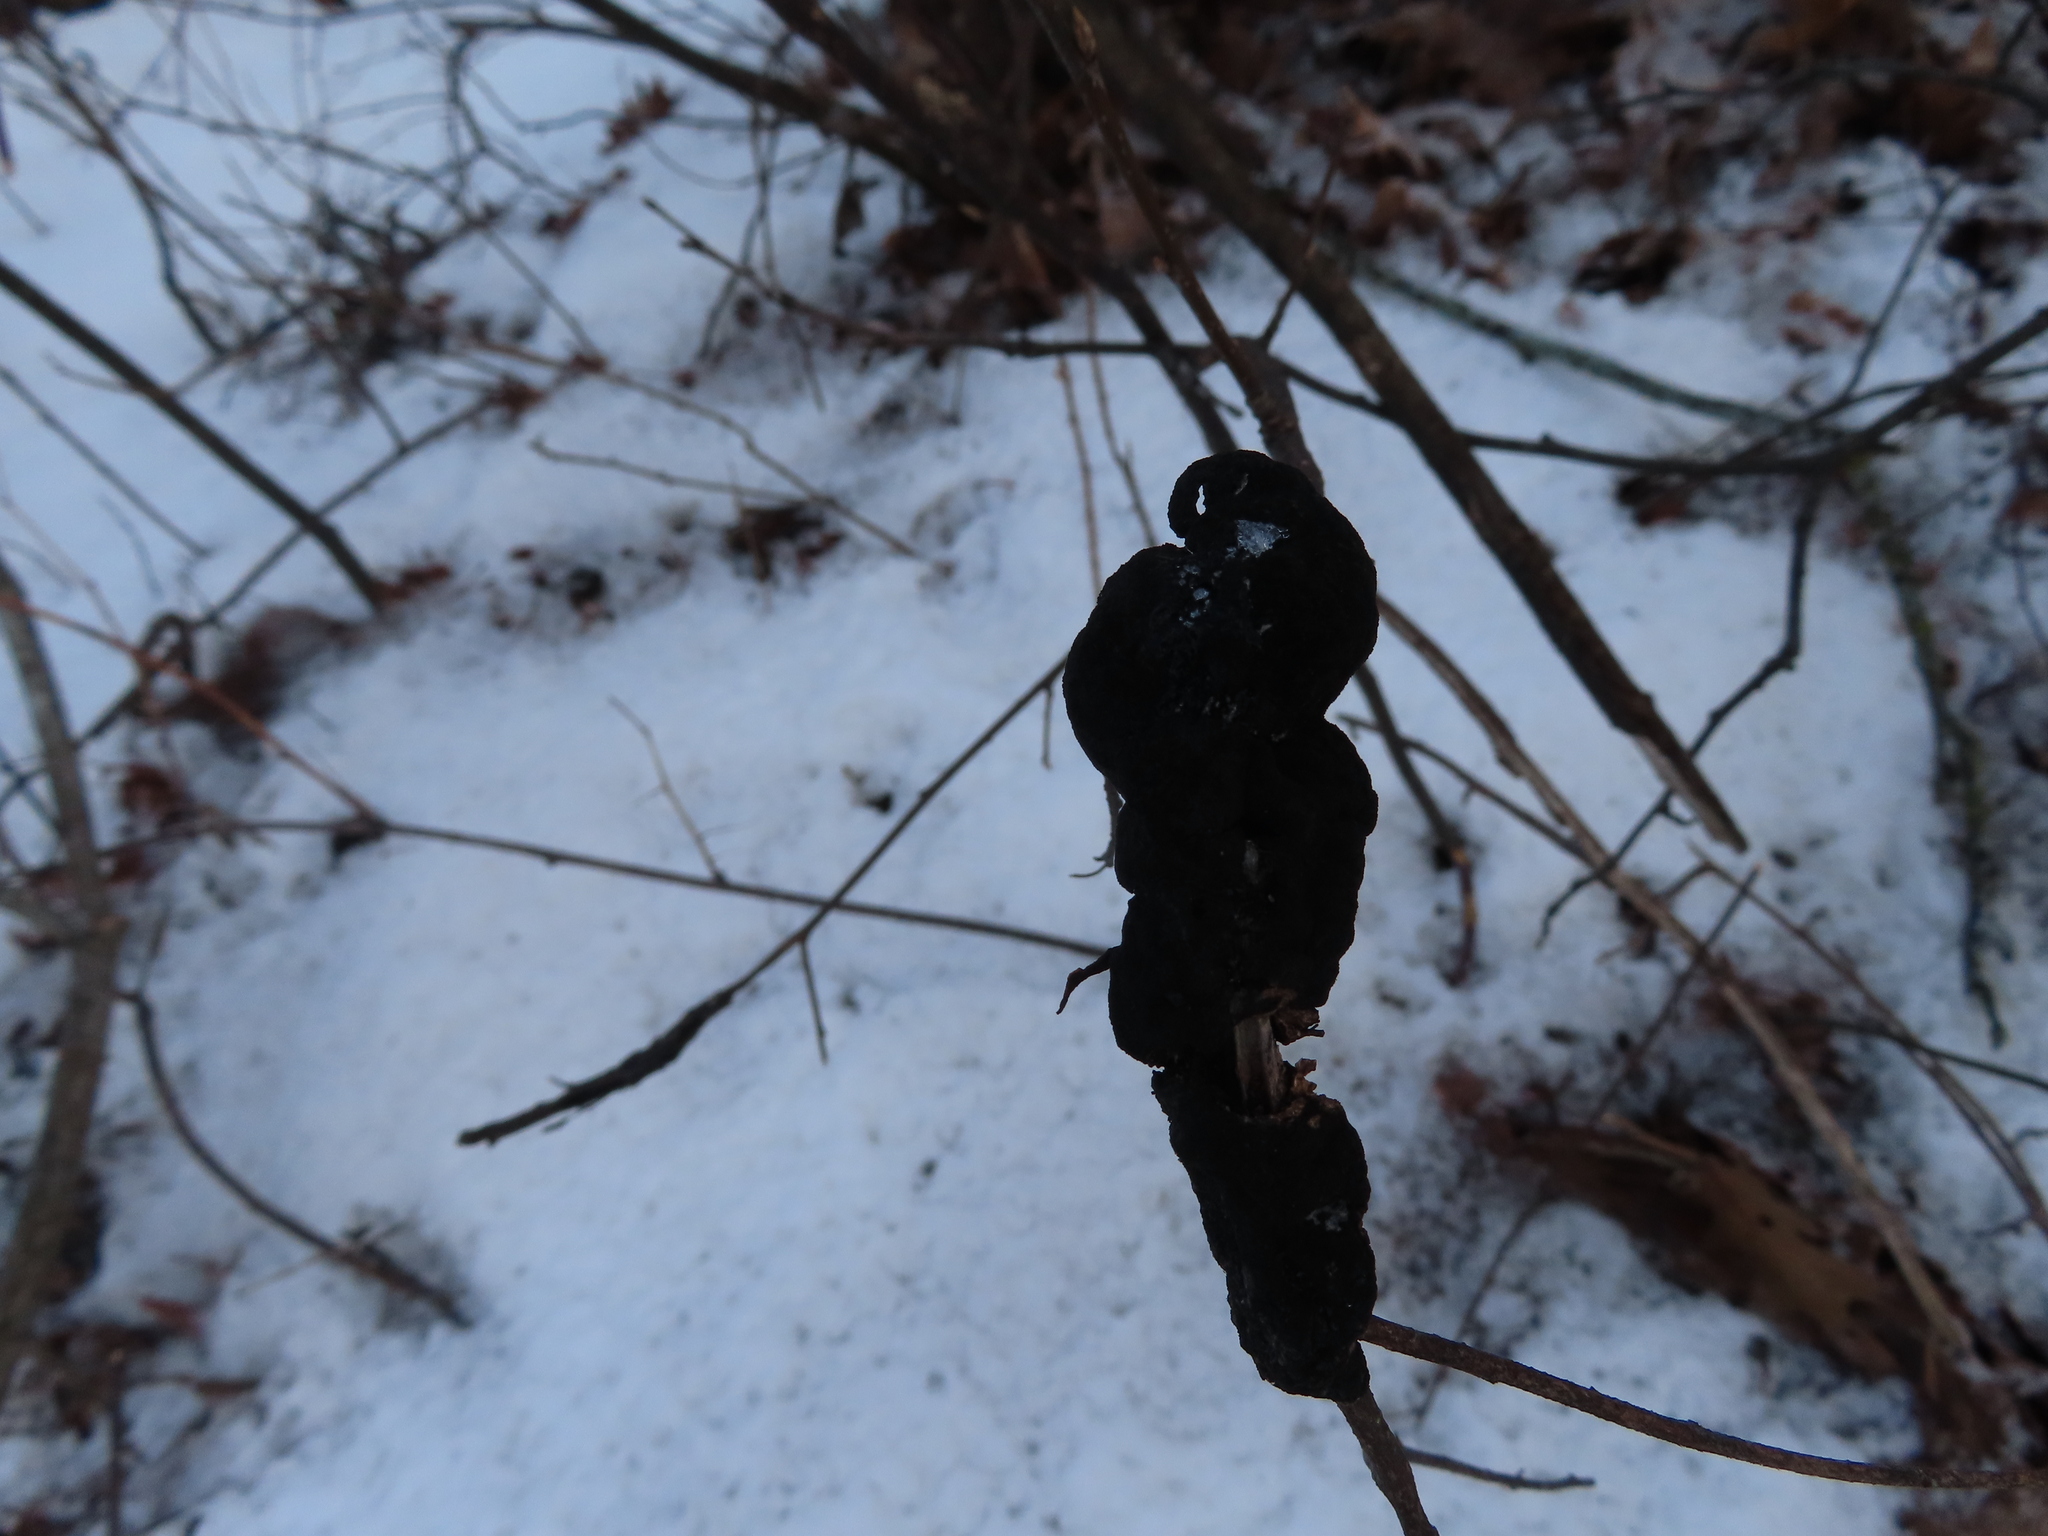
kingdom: Fungi
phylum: Ascomycota
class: Dothideomycetes
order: Venturiales
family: Venturiaceae
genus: Apiosporina
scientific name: Apiosporina morbosa
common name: Black knot
